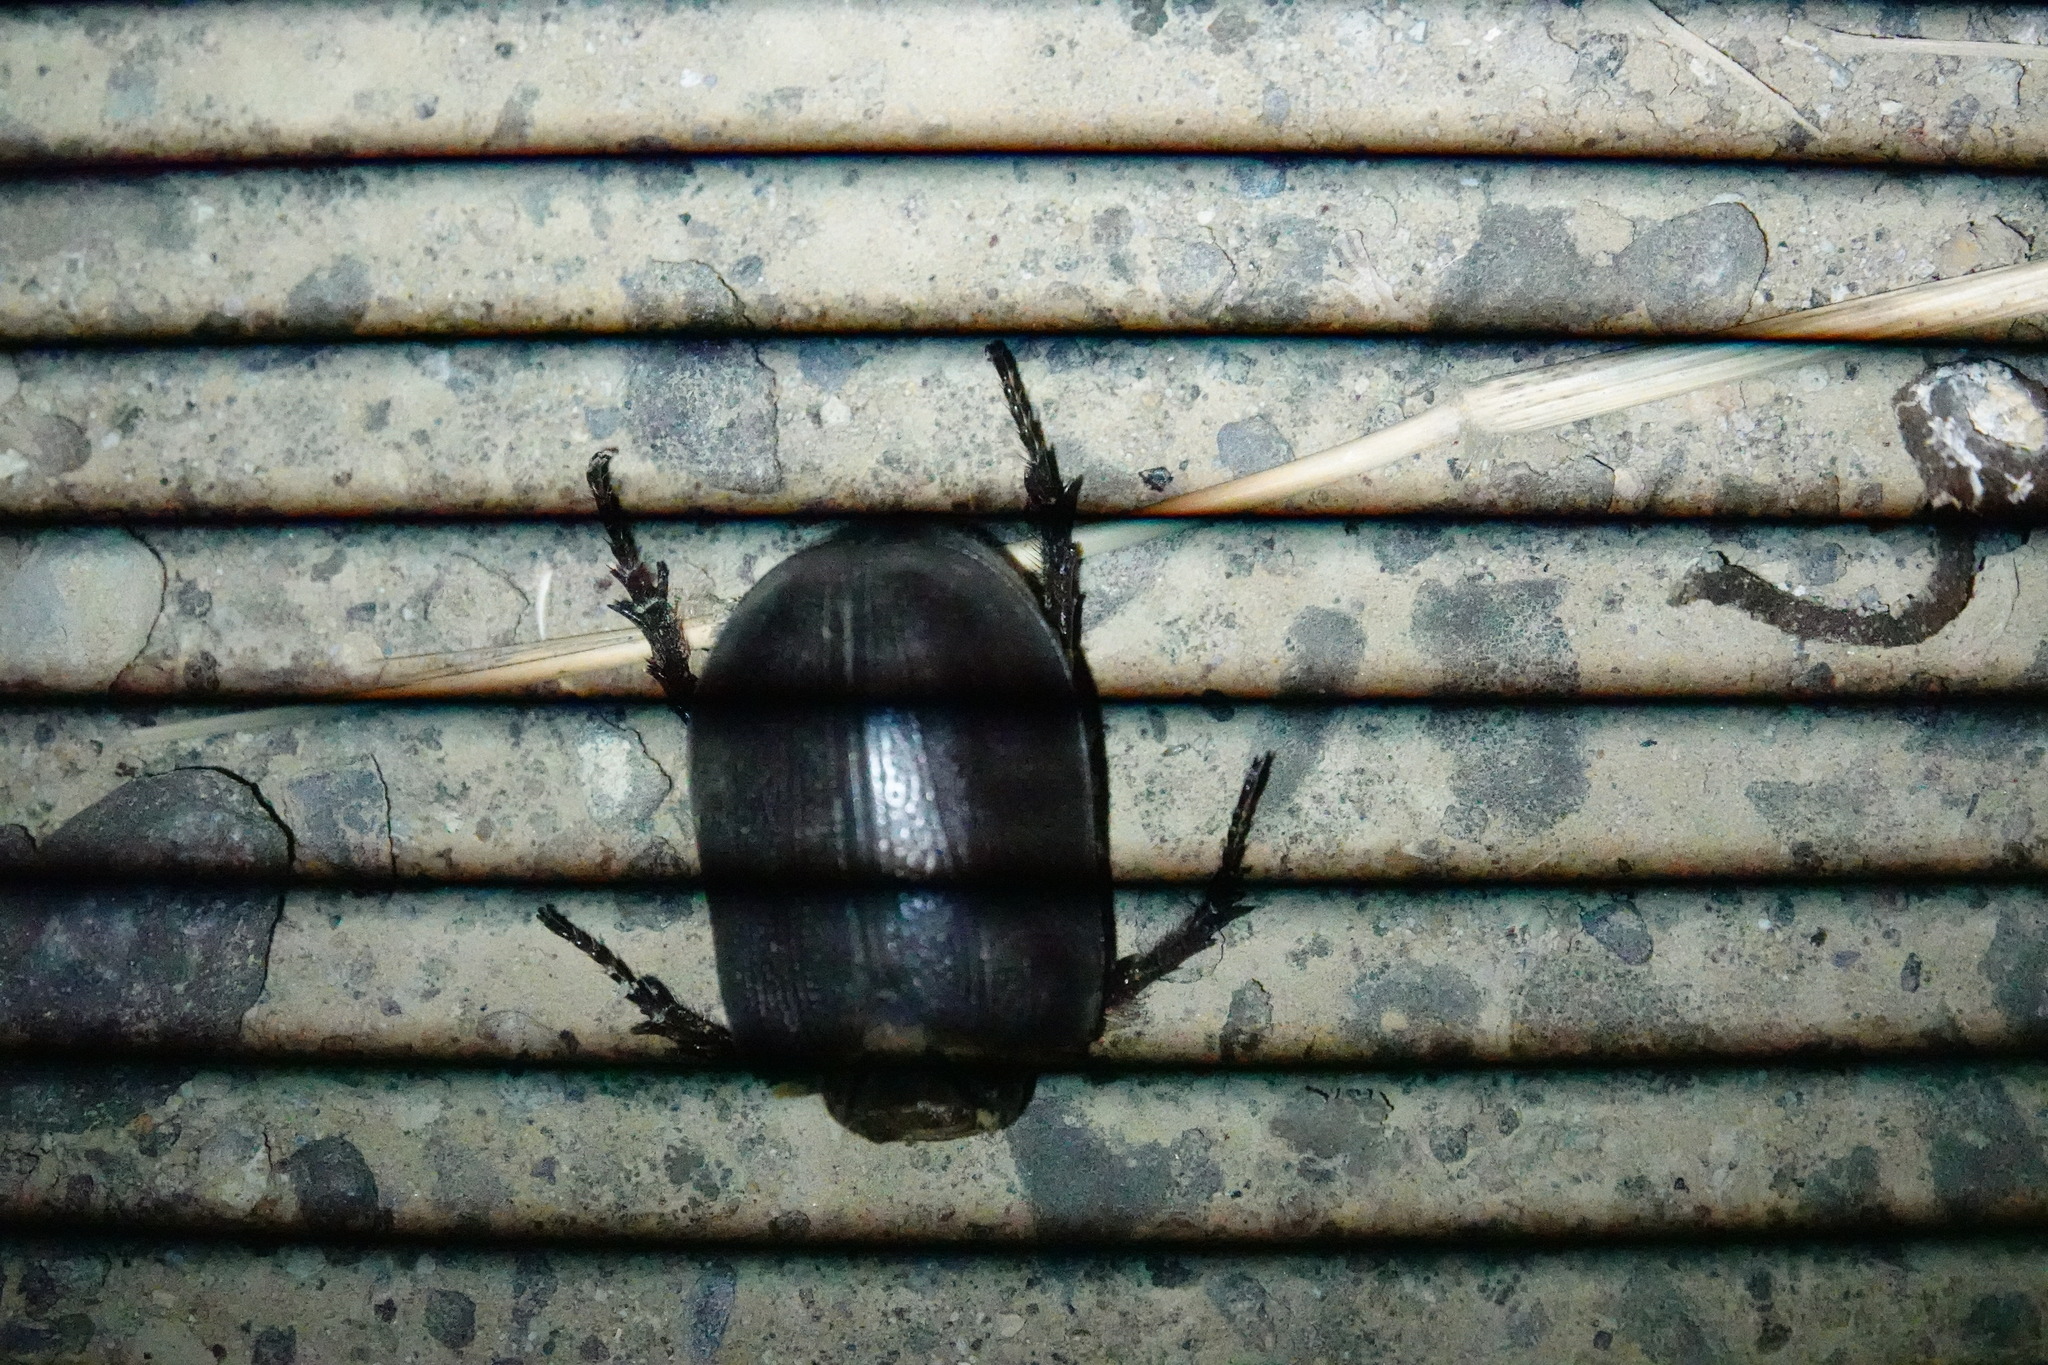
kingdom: Animalia
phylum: Arthropoda
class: Insecta
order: Coleoptera
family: Scarabaeidae
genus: Oryctes
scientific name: Oryctes rhinoceros
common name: Coconut rhinoceros beetle
